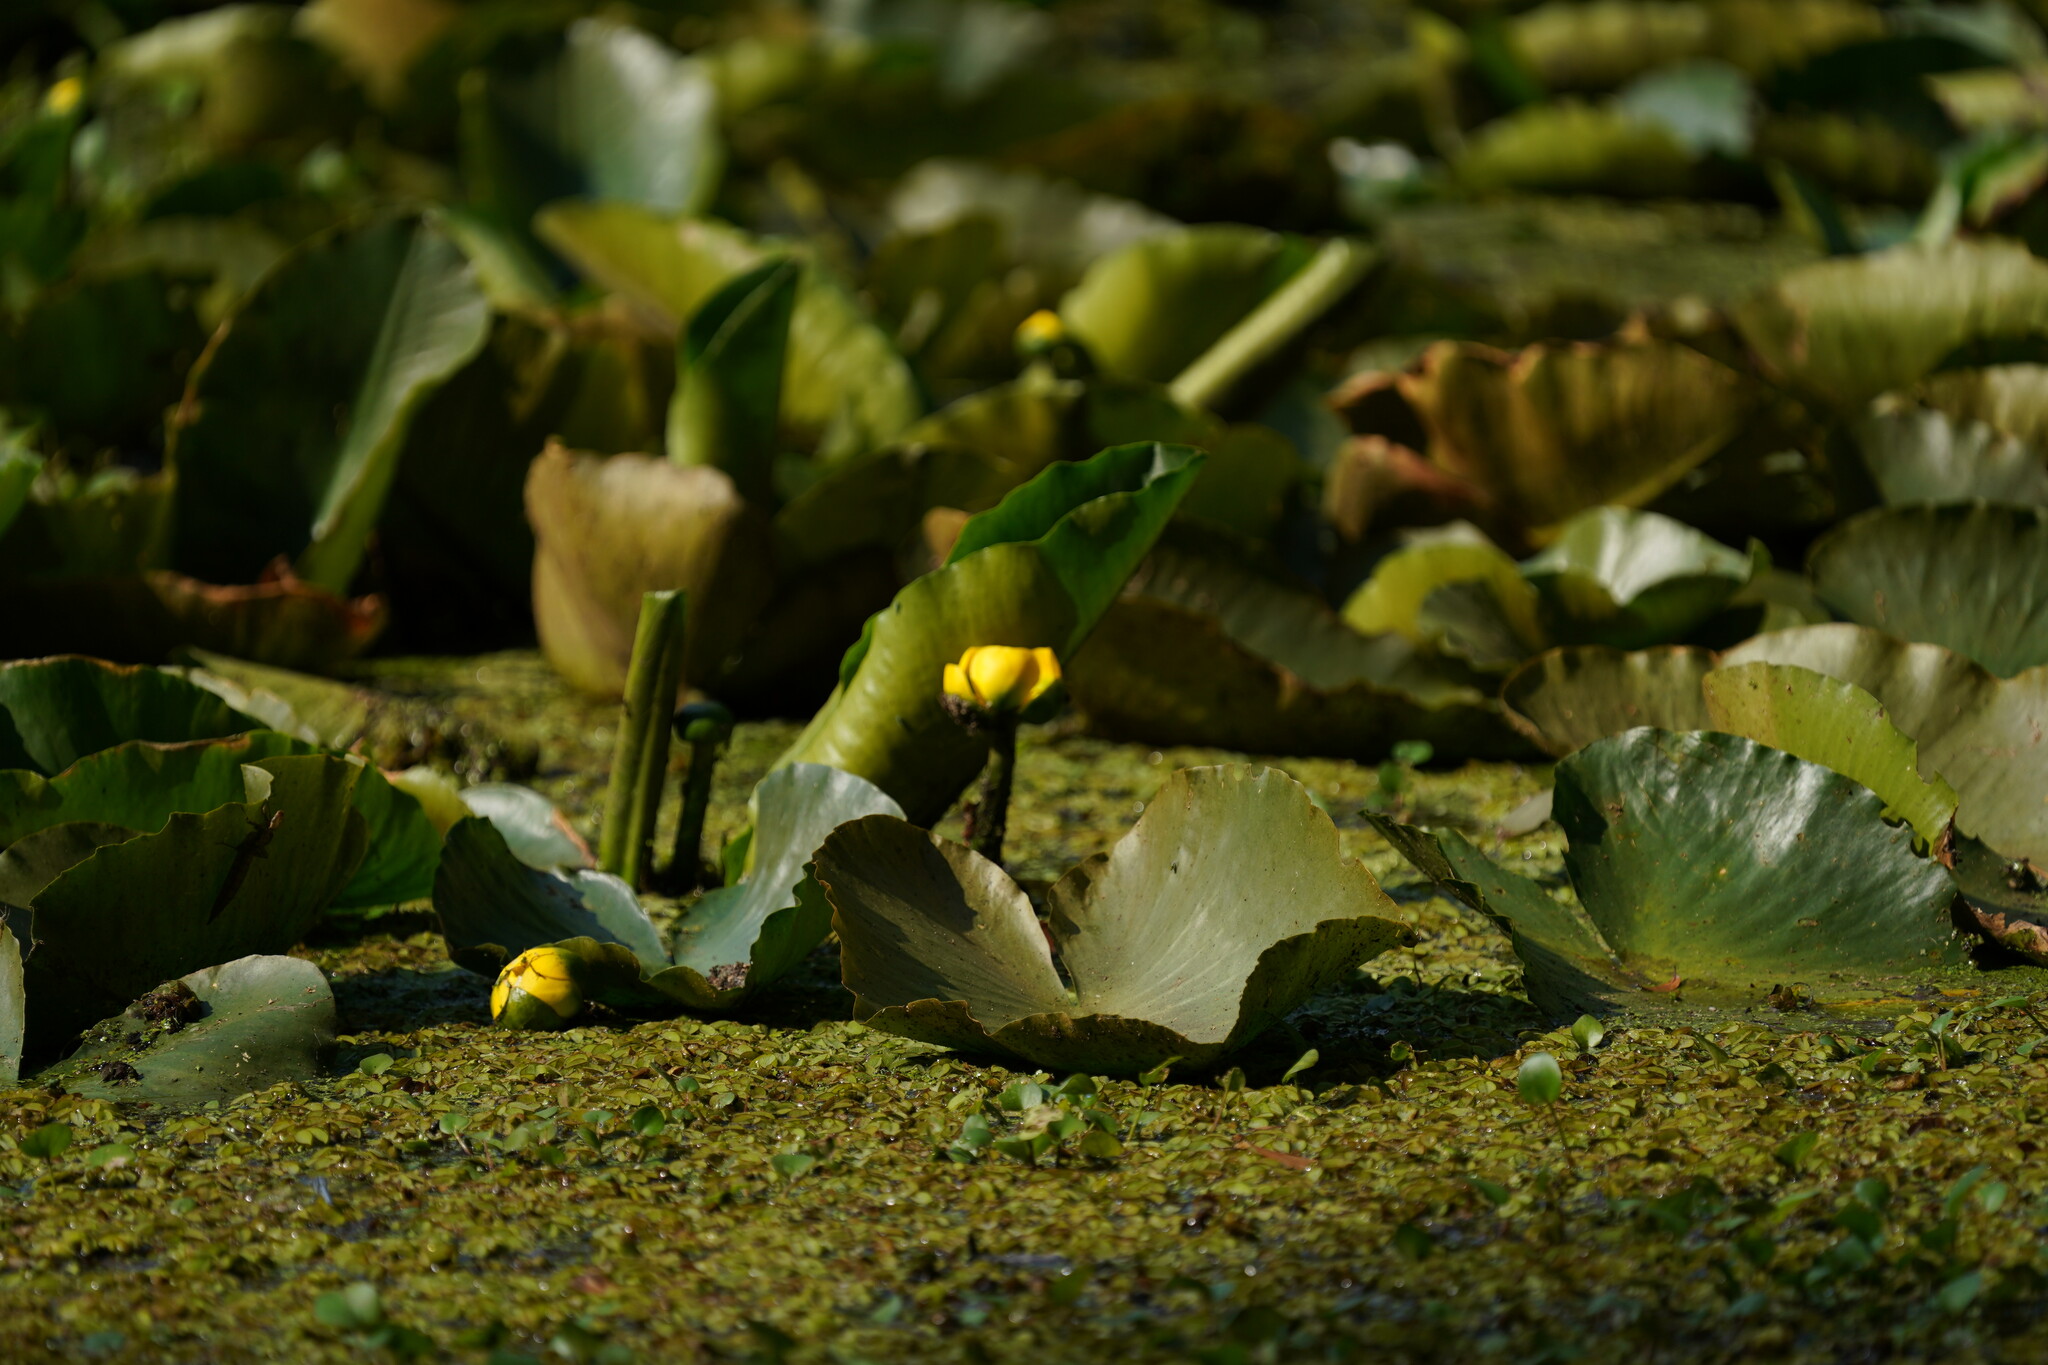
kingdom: Plantae
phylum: Tracheophyta
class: Magnoliopsida
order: Nymphaeales
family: Nymphaeaceae
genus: Nuphar
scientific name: Nuphar advena
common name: Spatter-dock
